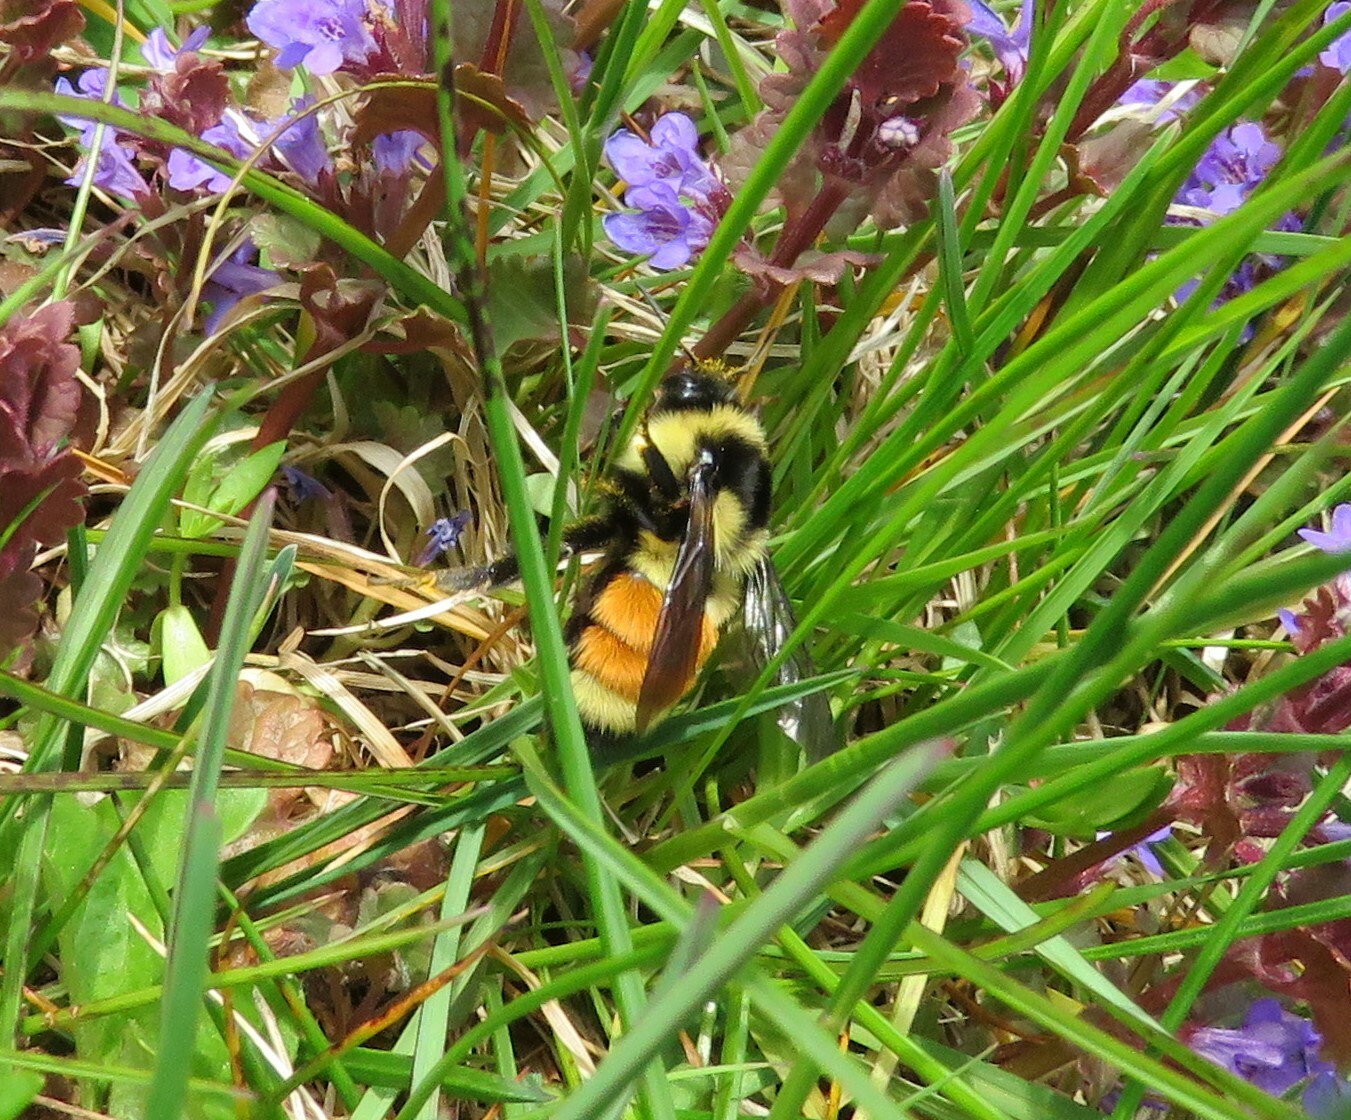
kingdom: Animalia
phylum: Arthropoda
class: Insecta
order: Hymenoptera
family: Apidae
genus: Bombus
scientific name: Bombus ternarius
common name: Tri-colored bumble bee
